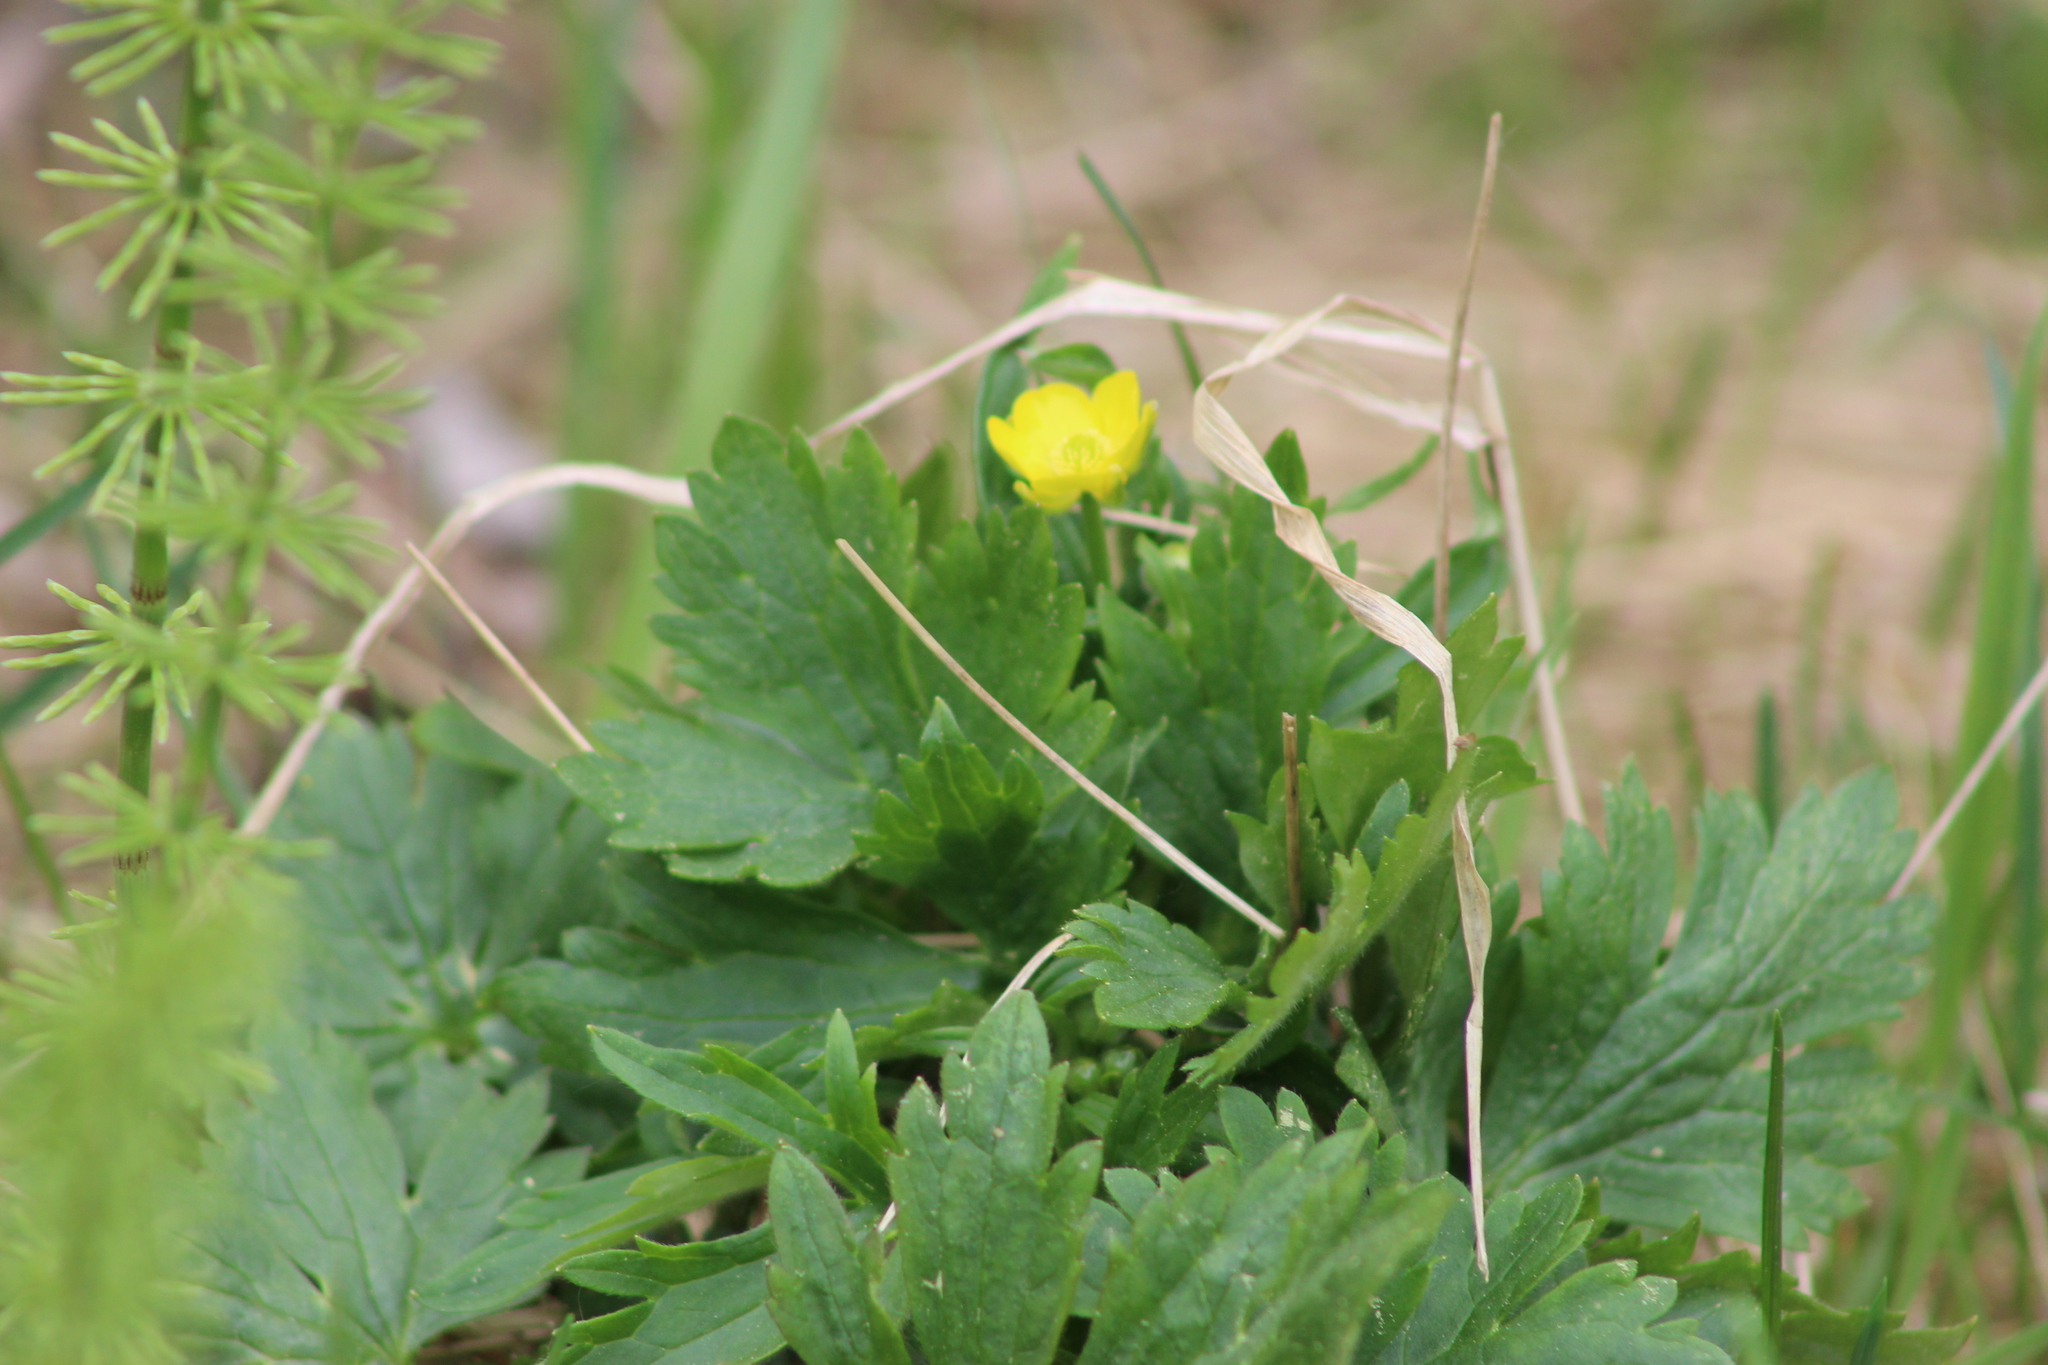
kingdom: Plantae
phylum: Tracheophyta
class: Magnoliopsida
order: Ranunculales
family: Ranunculaceae
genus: Ranunculus
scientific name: Ranunculus propinquus
